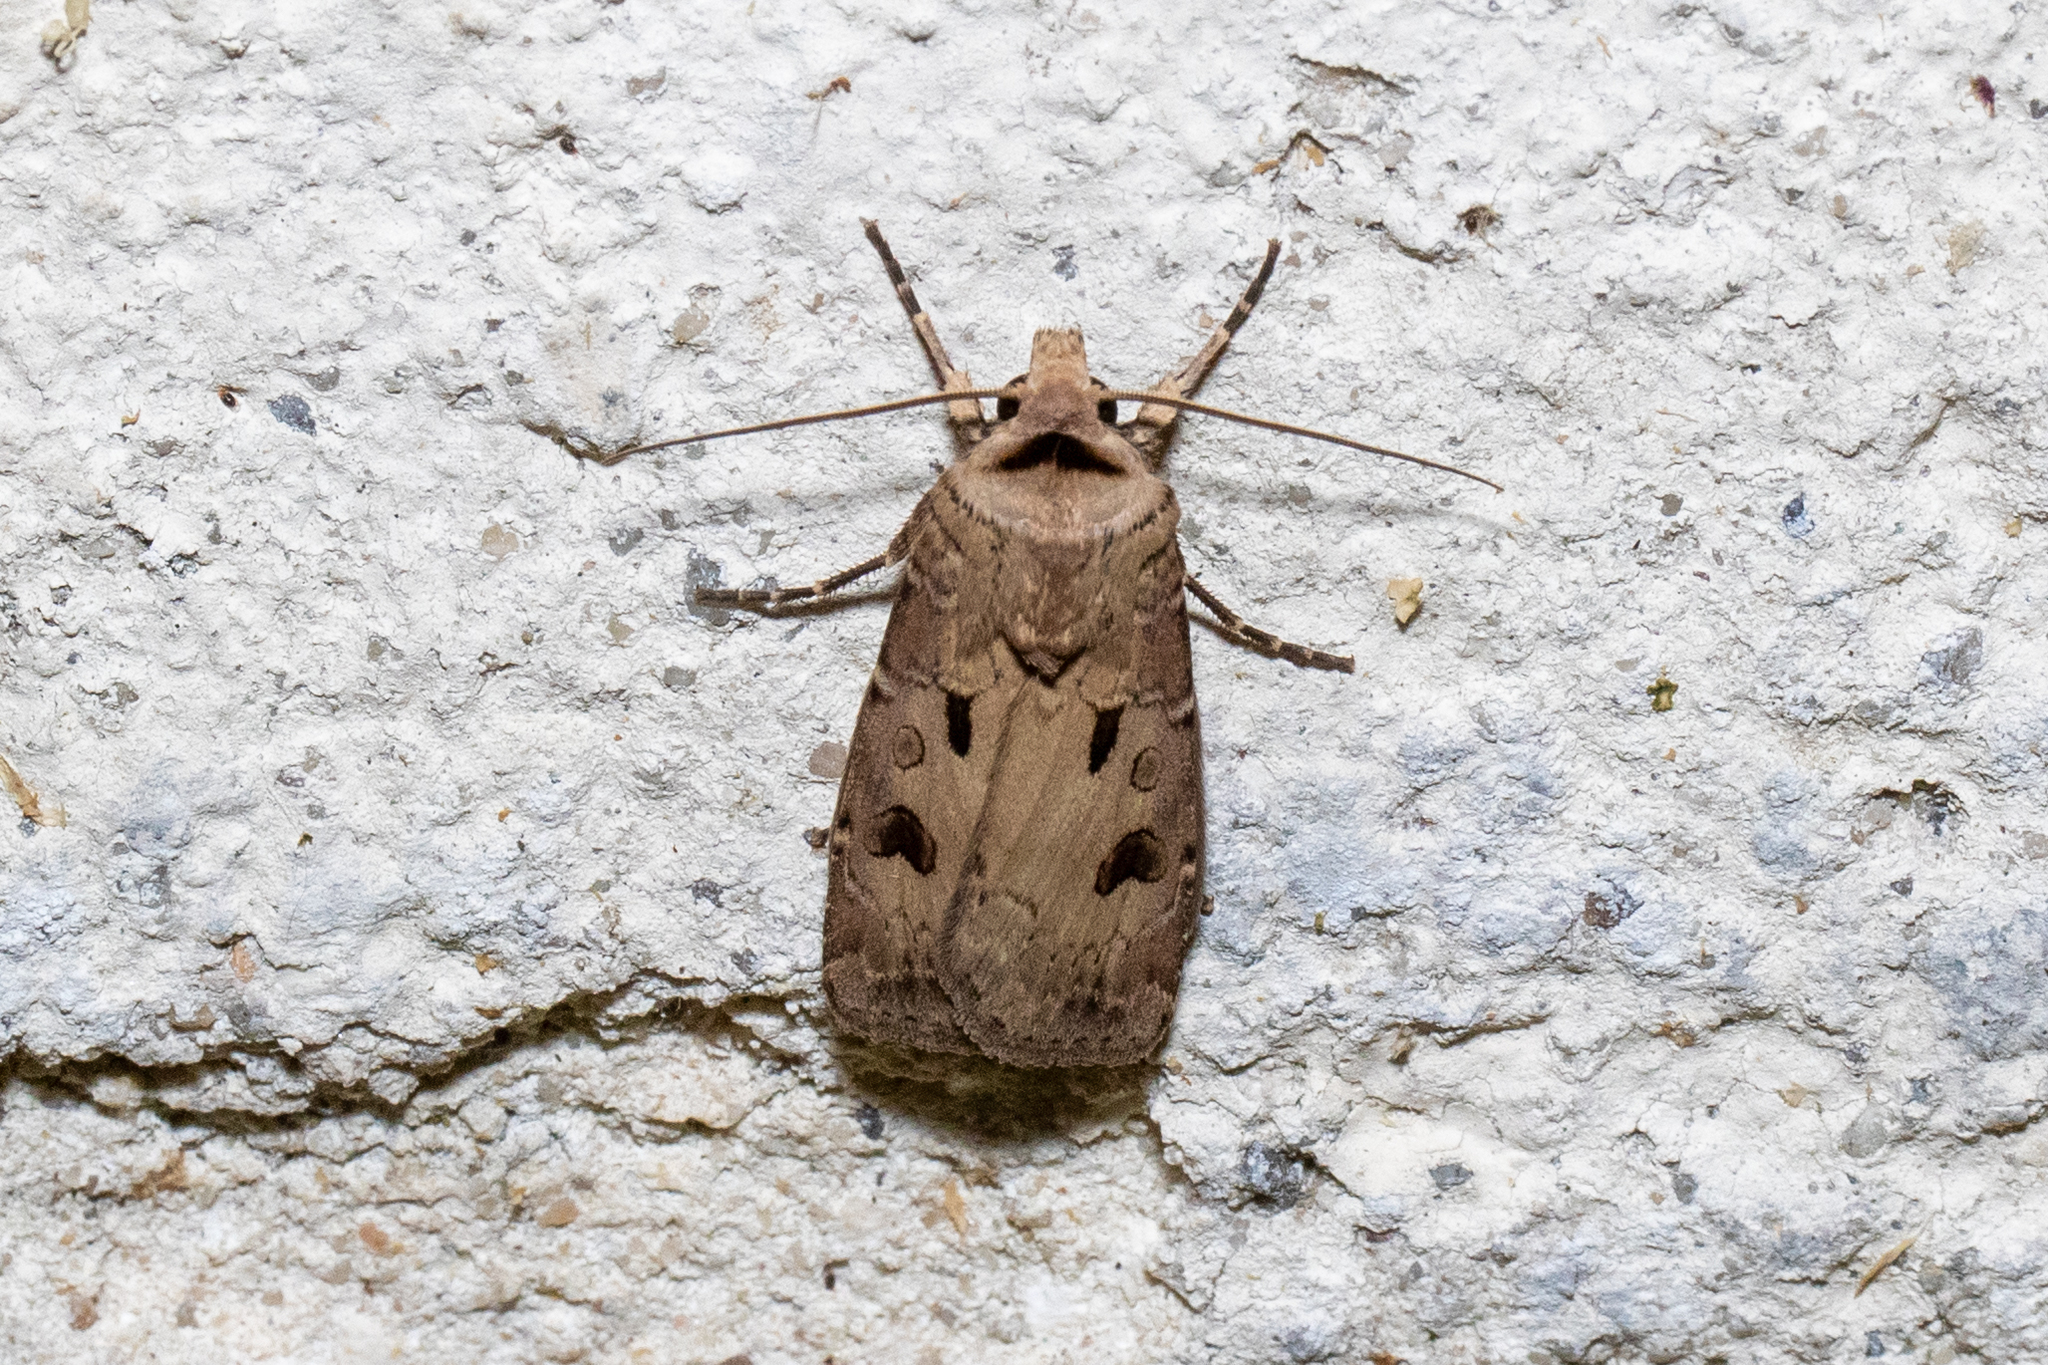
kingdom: Animalia
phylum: Arthropoda
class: Insecta
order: Lepidoptera
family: Noctuidae
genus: Agrotis
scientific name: Agrotis exclamationis
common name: Heart and dart
